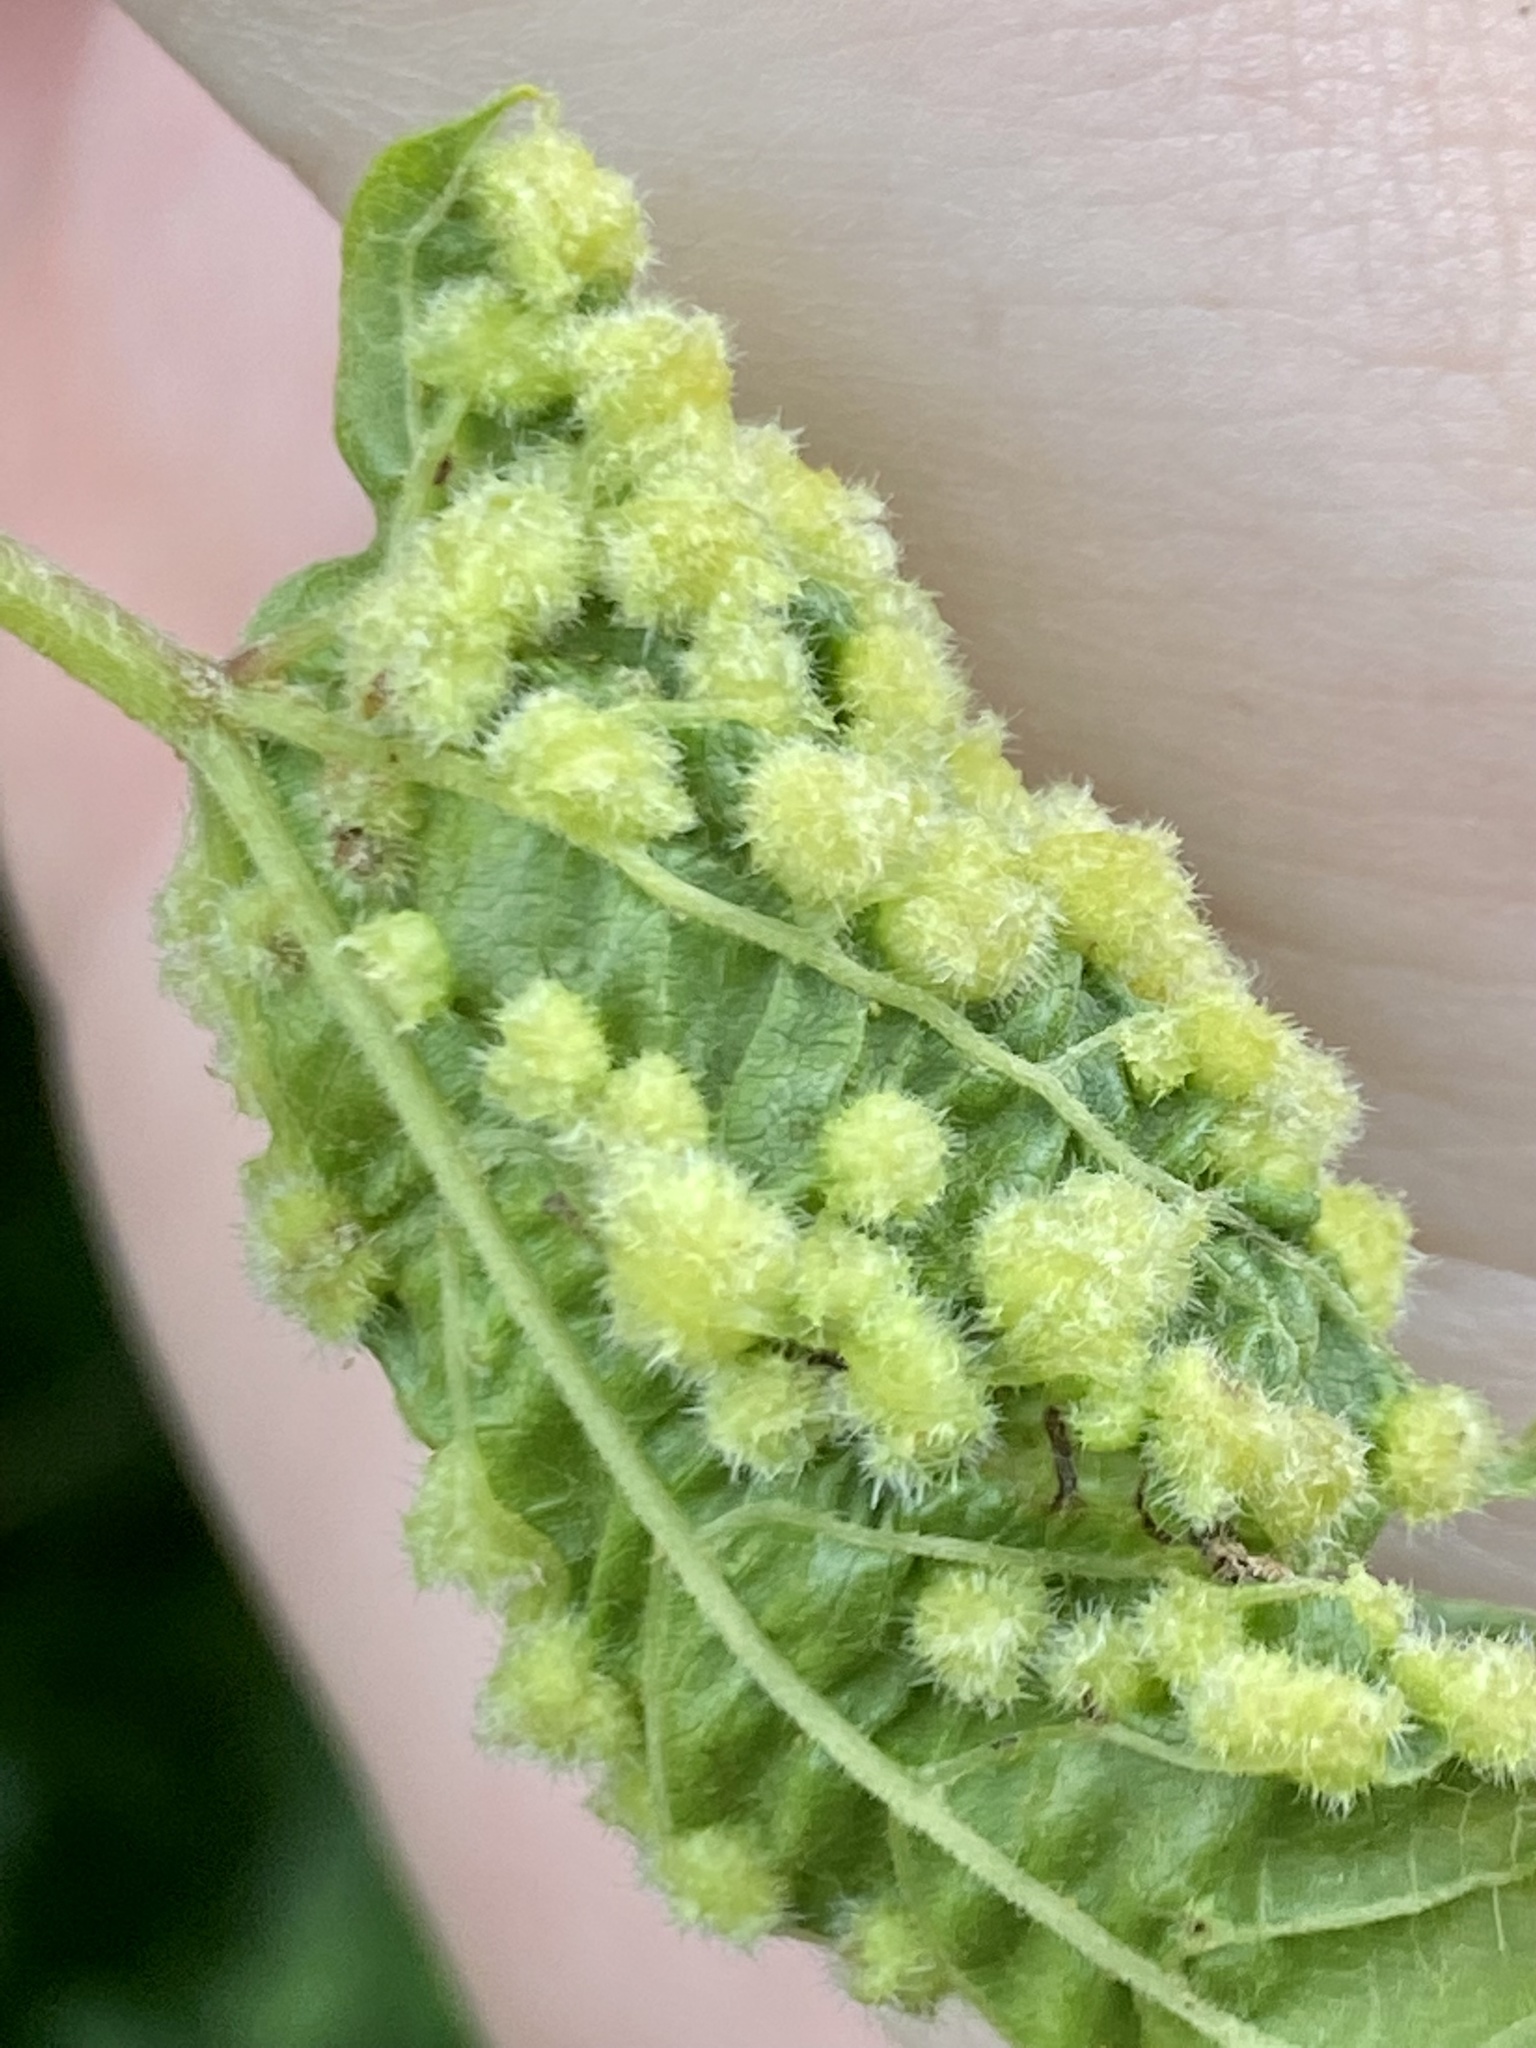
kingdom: Animalia
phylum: Arthropoda
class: Insecta
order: Hemiptera
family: Phylloxeridae
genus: Daktulosphaira
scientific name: Daktulosphaira vitifoliae
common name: Grape phylloxera
